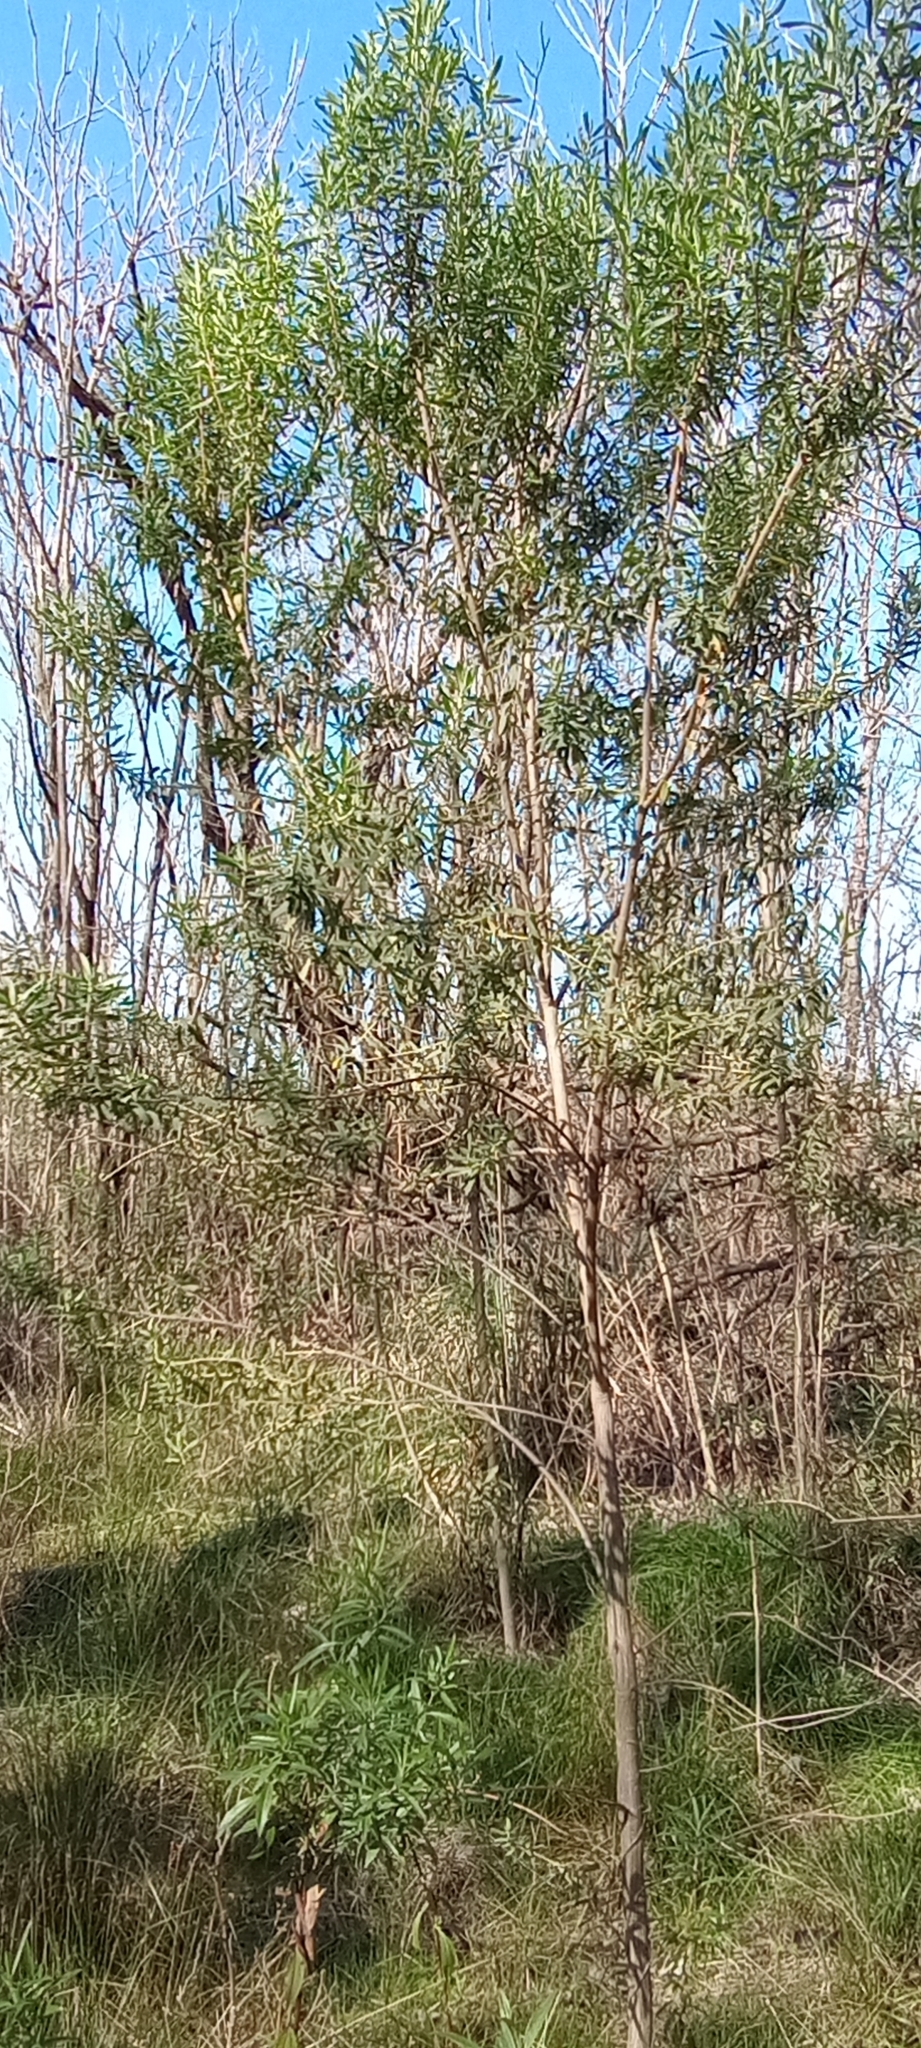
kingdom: Plantae
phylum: Tracheophyta
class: Magnoliopsida
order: Asterales
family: Asteraceae
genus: Baccharis
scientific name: Baccharis dracunculifolia
